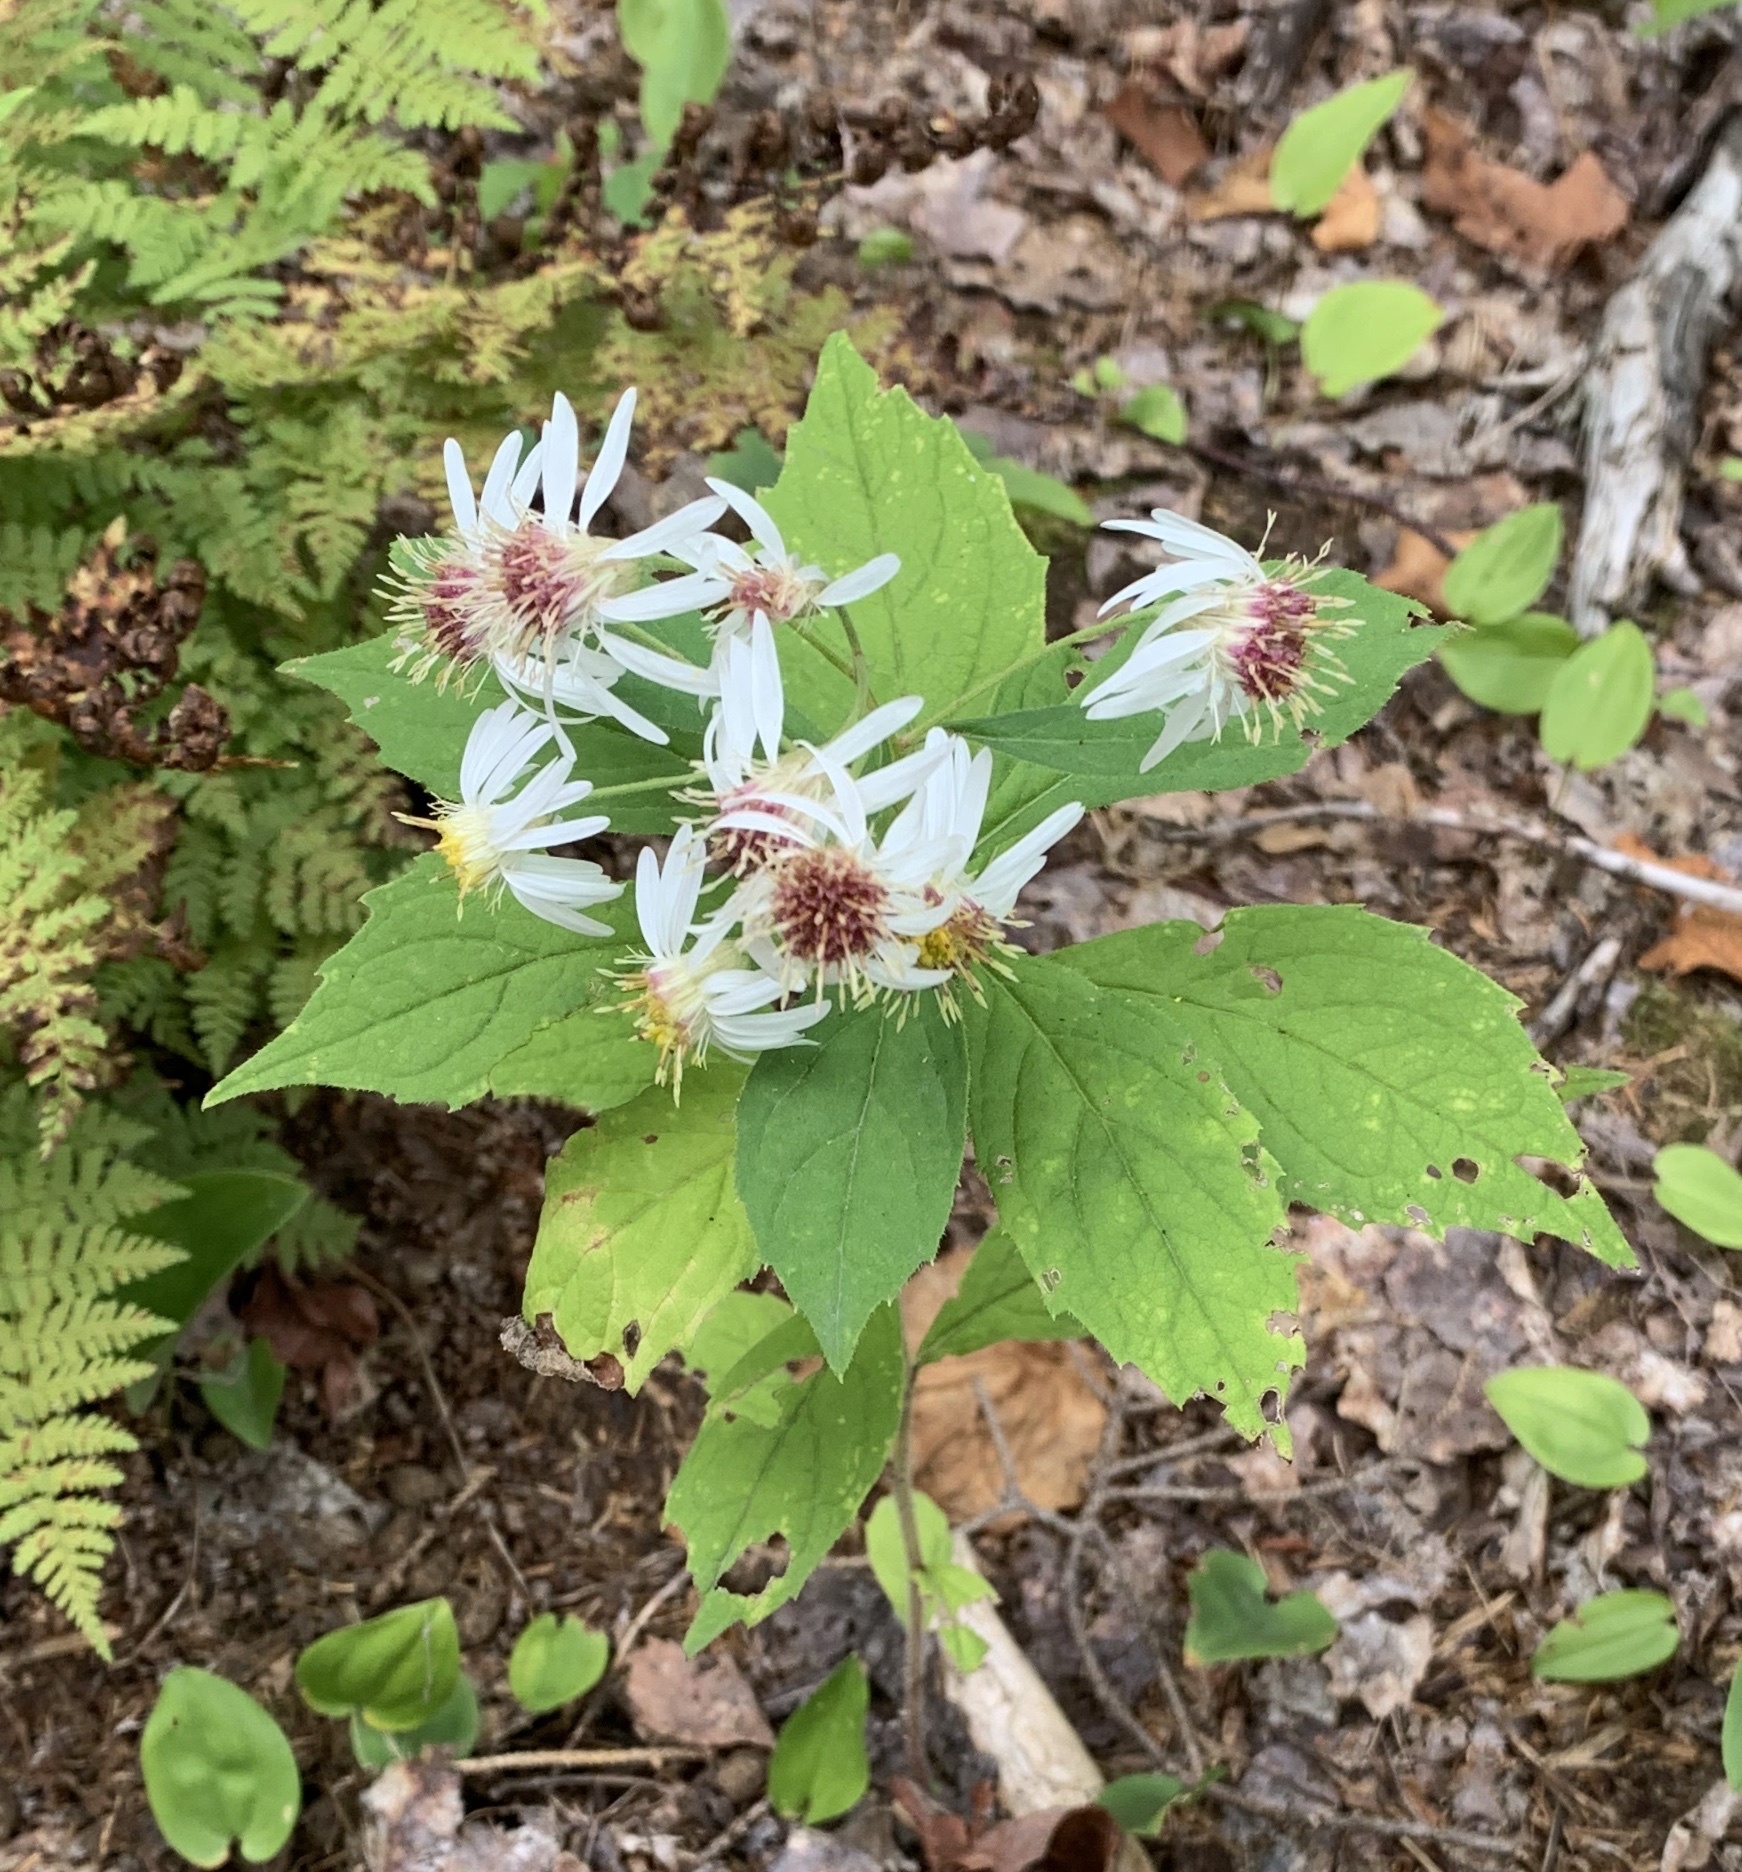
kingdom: Plantae
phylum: Tracheophyta
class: Magnoliopsida
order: Asterales
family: Asteraceae
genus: Oclemena
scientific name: Oclemena acuminata
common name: Mountain aster
